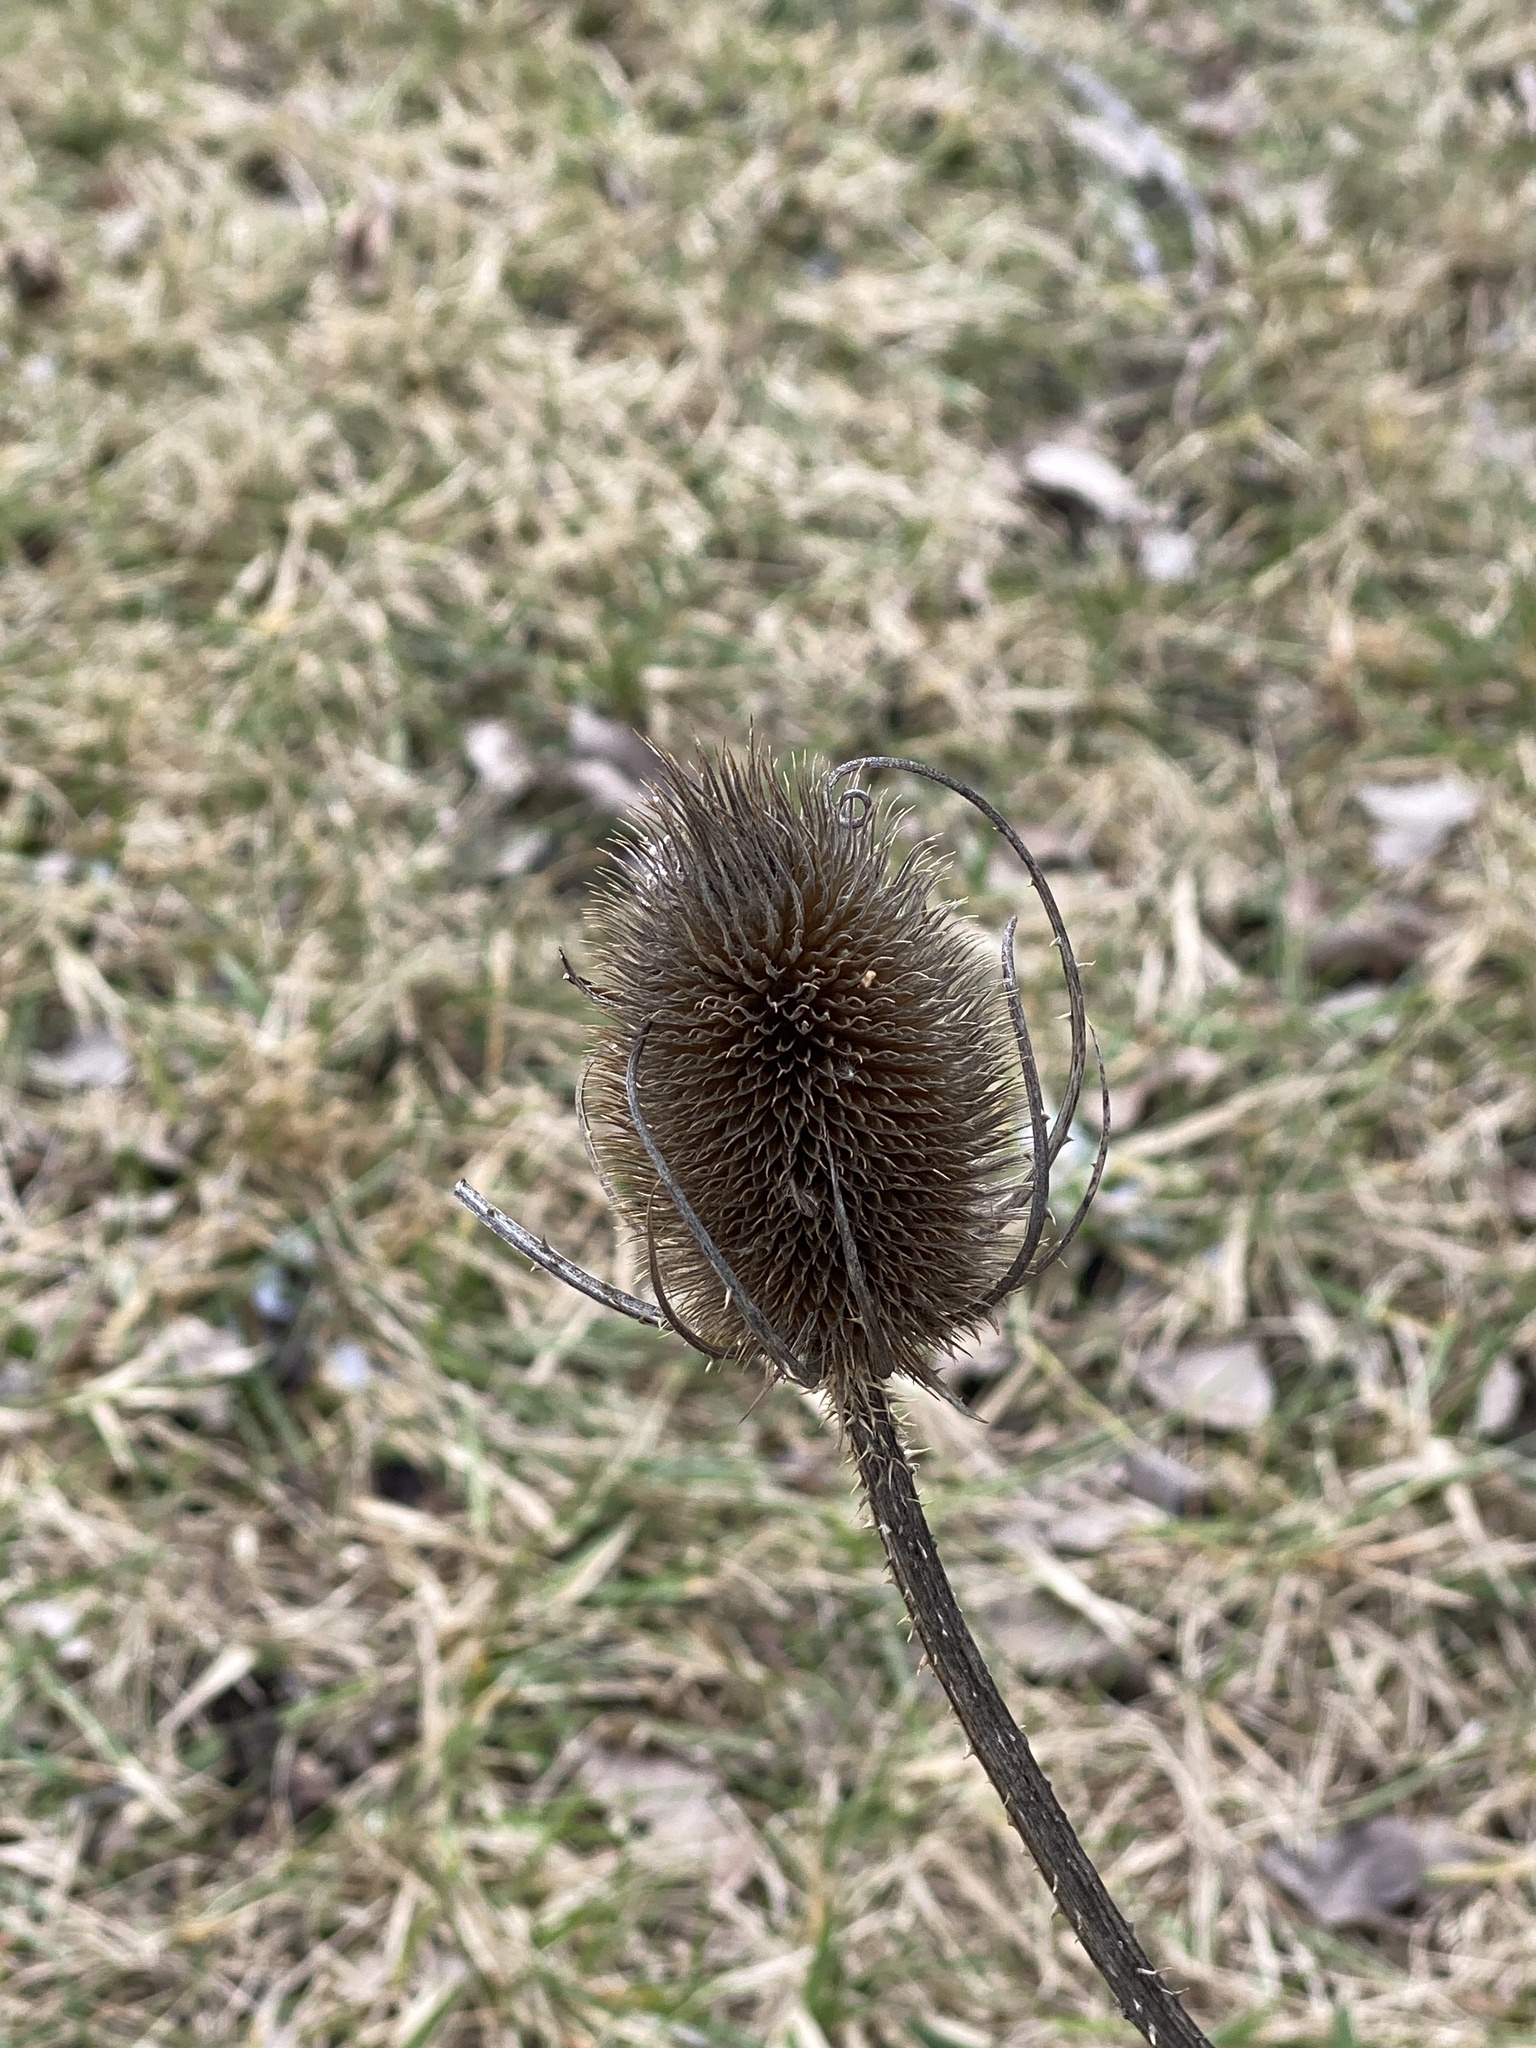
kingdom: Plantae
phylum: Tracheophyta
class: Magnoliopsida
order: Dipsacales
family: Caprifoliaceae
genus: Dipsacus
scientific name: Dipsacus fullonum
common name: Teasel
